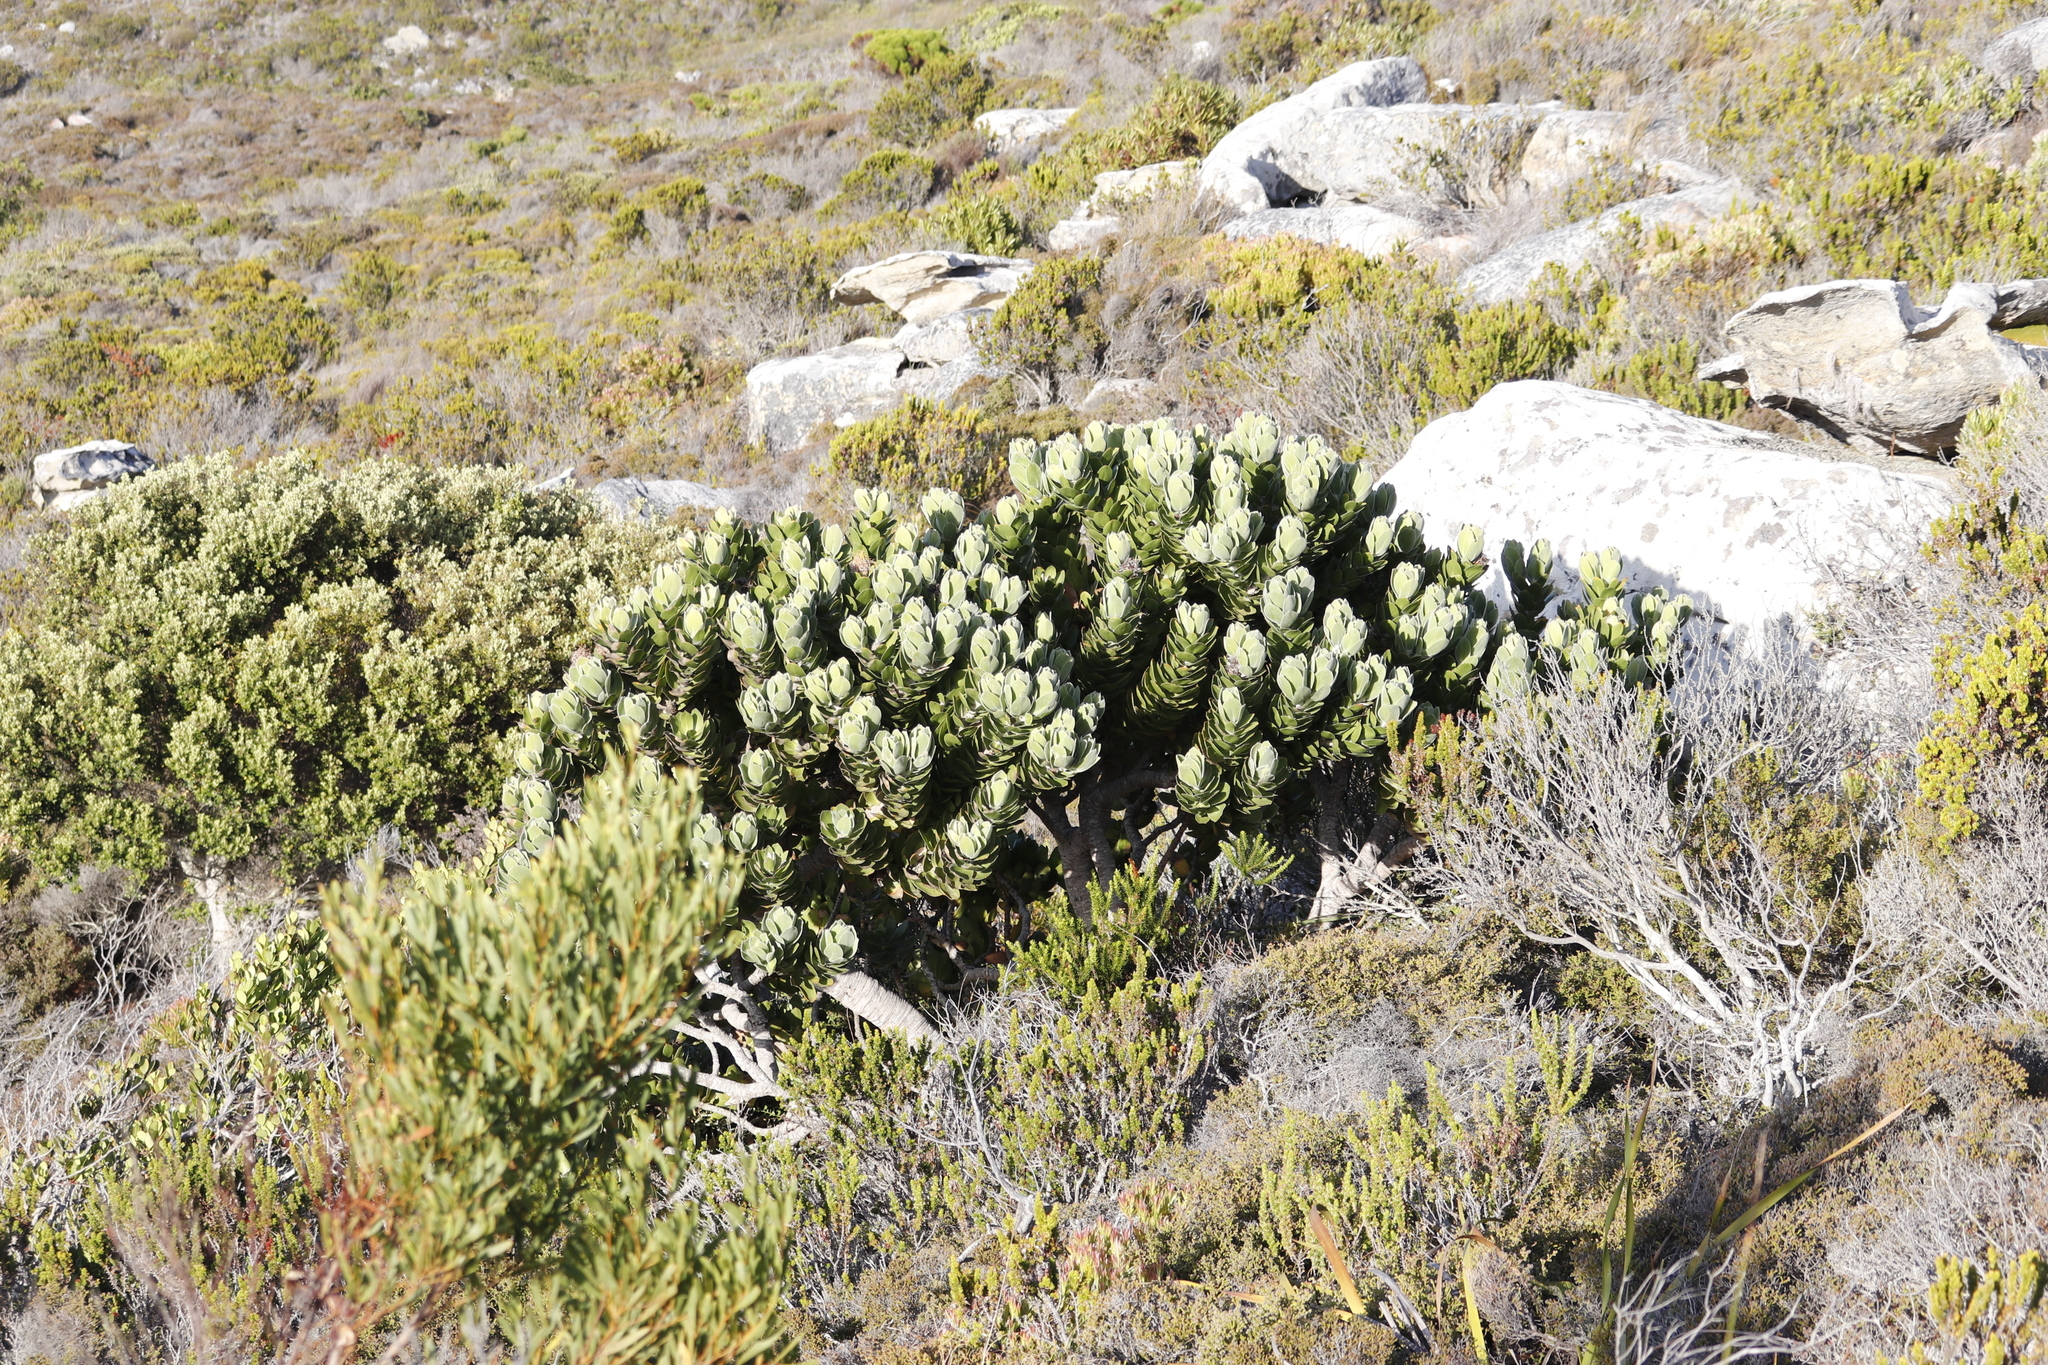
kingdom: Plantae
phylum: Tracheophyta
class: Magnoliopsida
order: Proteales
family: Proteaceae
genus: Leucospermum
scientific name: Leucospermum conocarpodendron
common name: Tree pincushion
